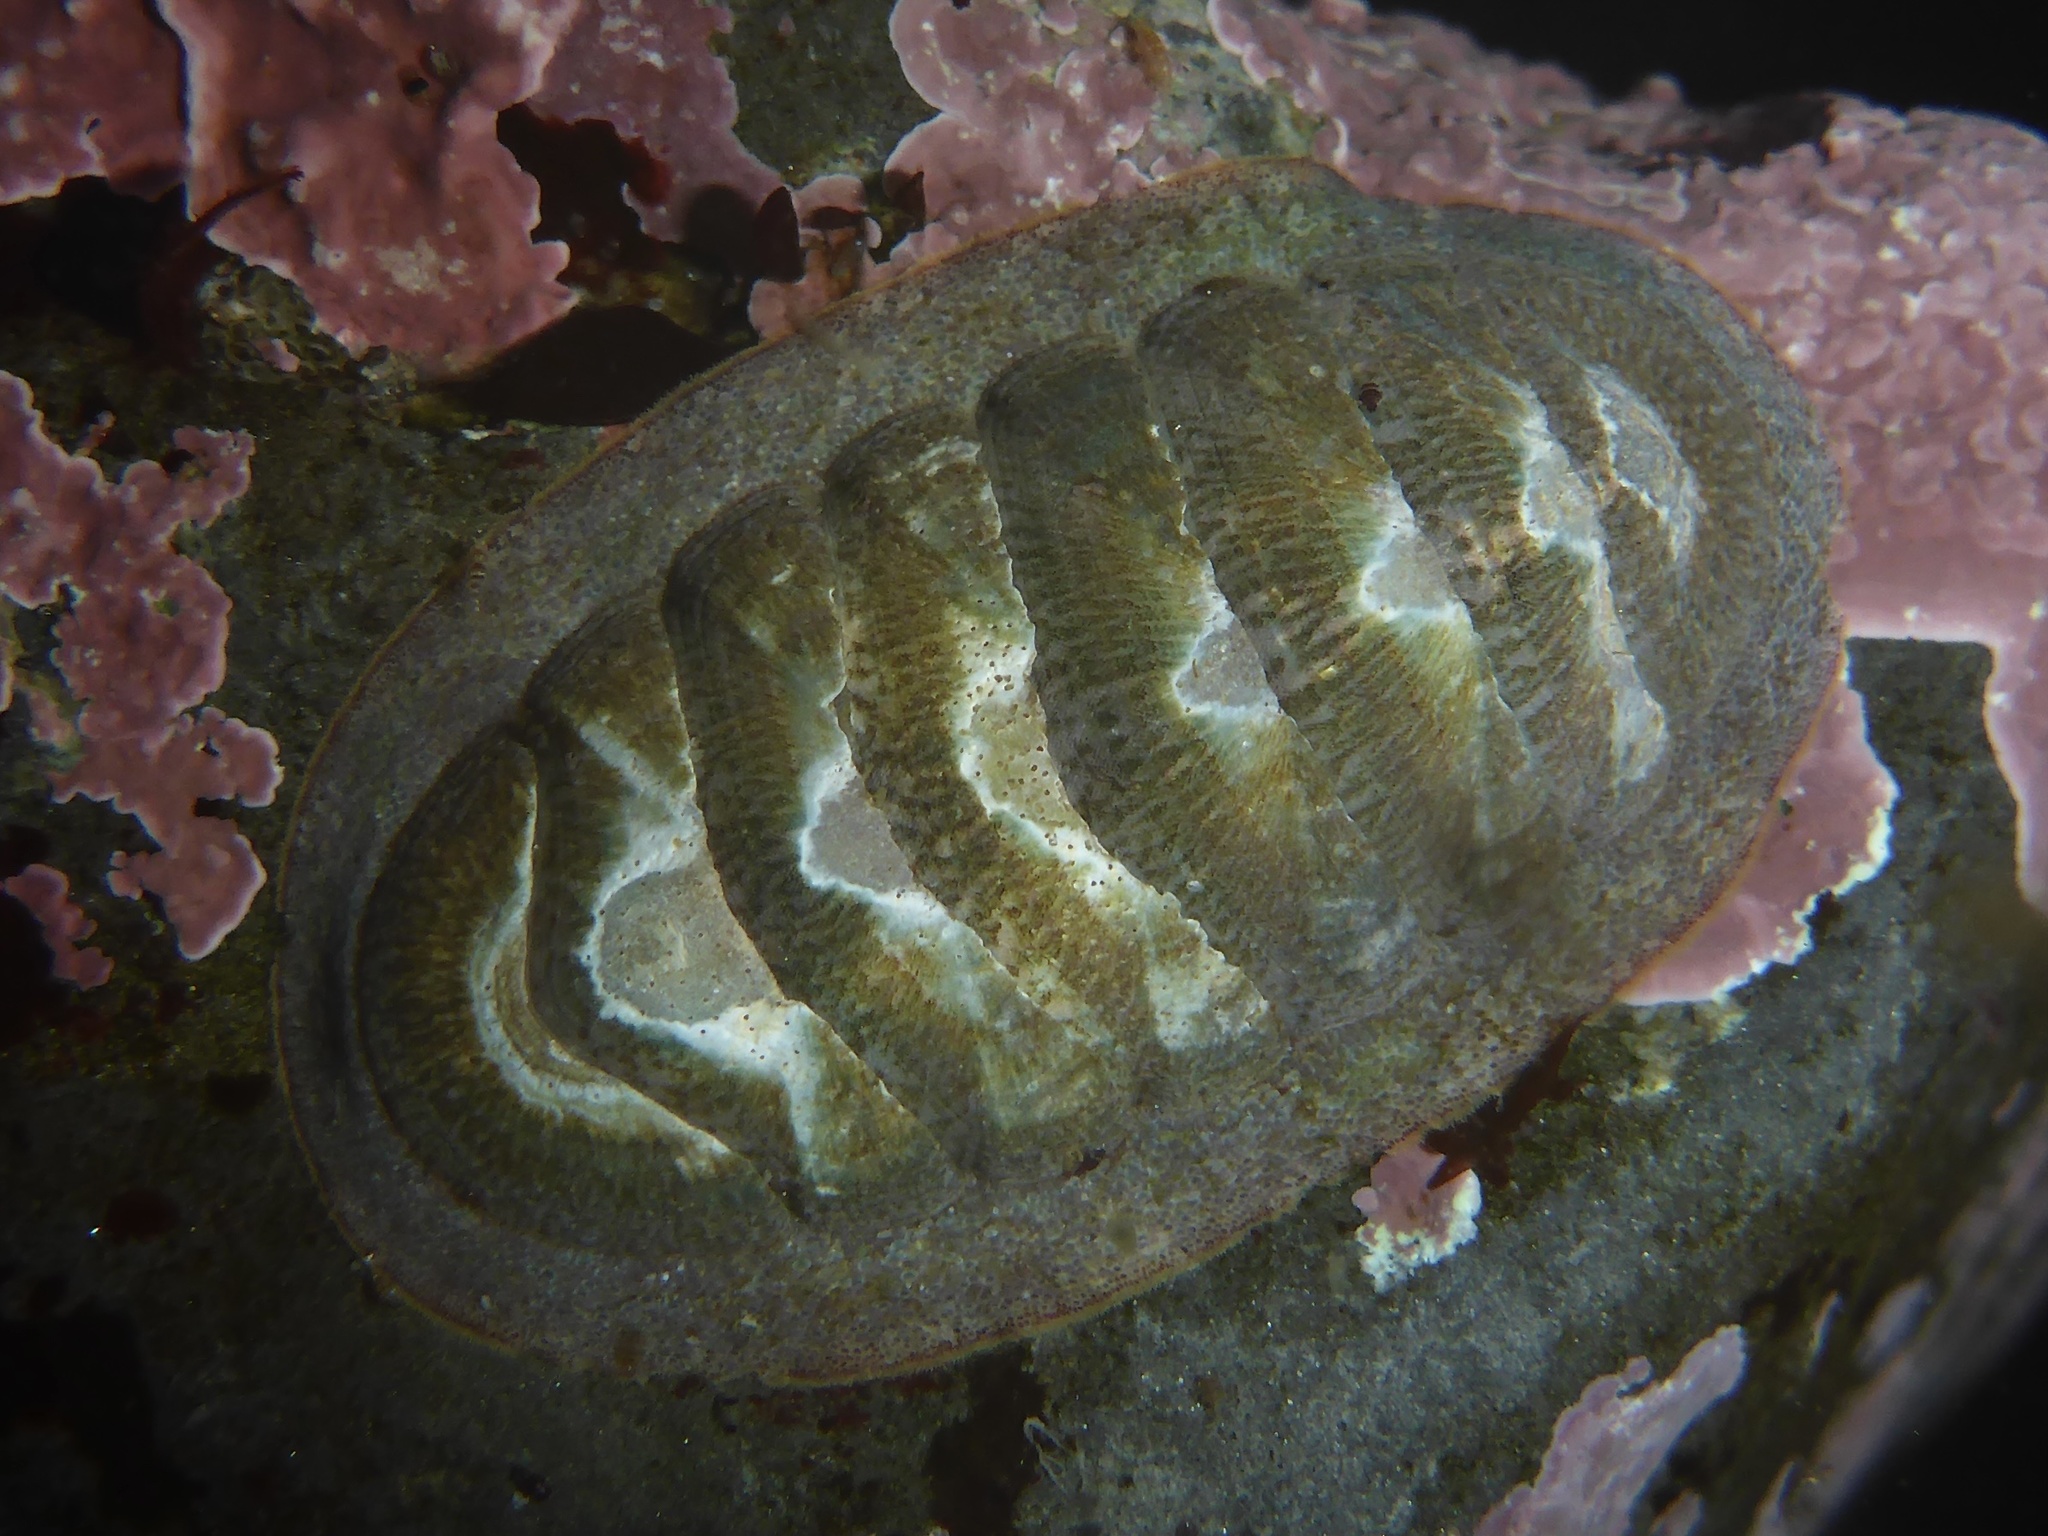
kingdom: Animalia
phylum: Mollusca
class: Polyplacophora
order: Chitonida
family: Ischnochitonidae
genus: Lepidozona
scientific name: Lepidozona radians
